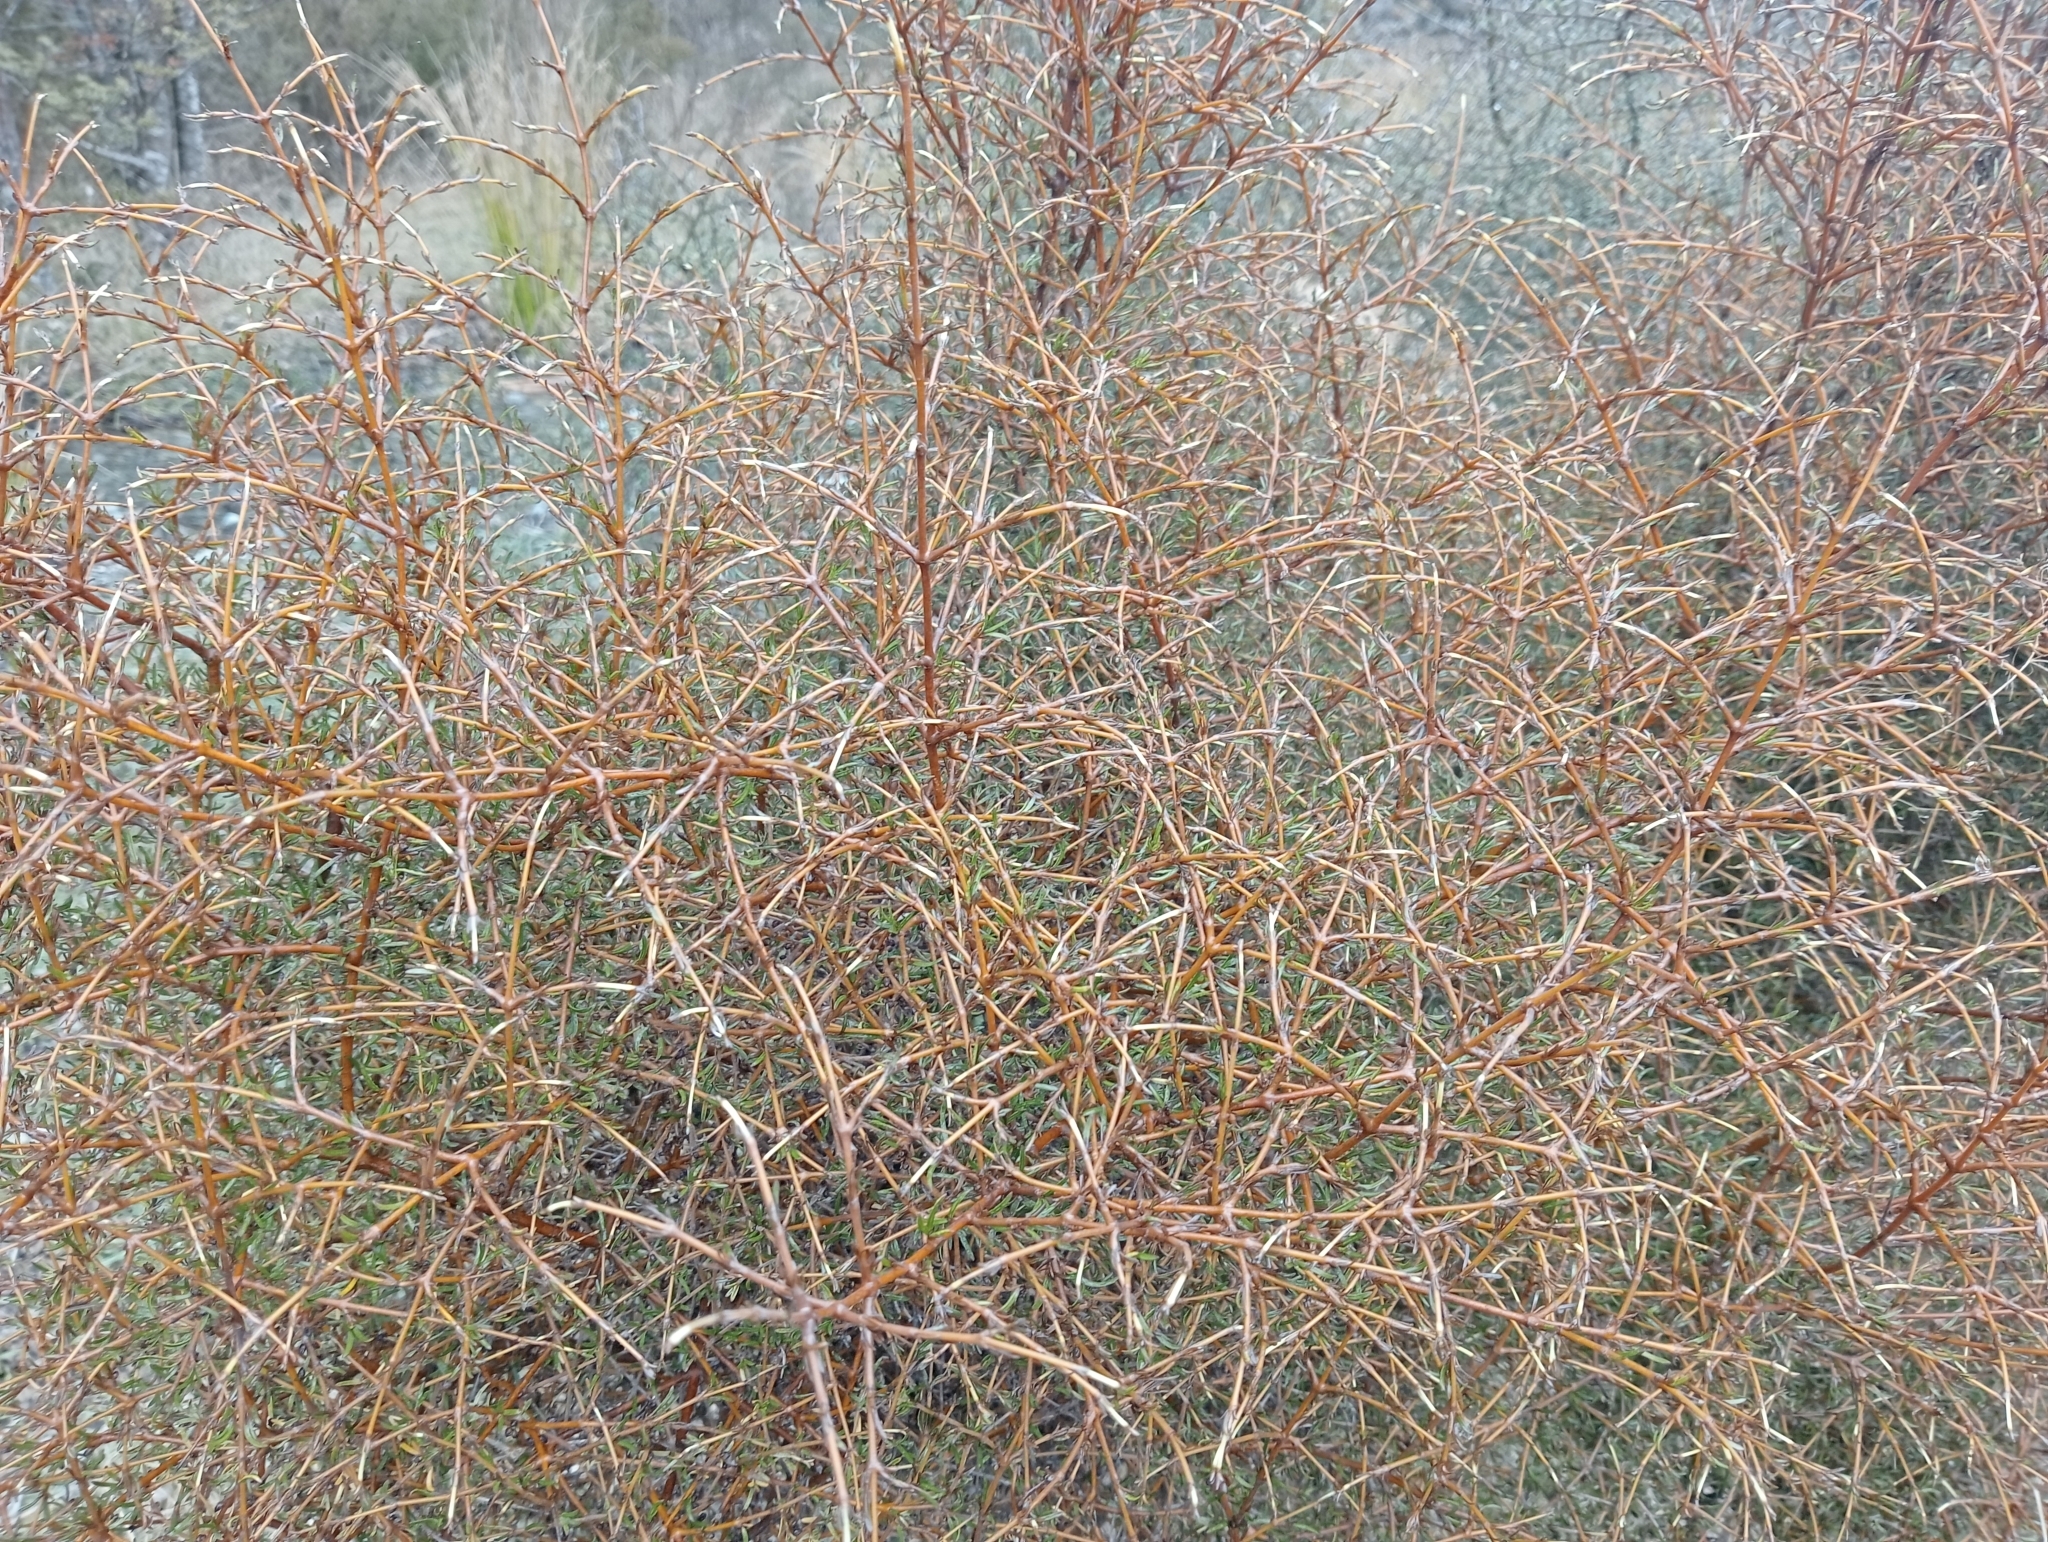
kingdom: Plantae
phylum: Tracheophyta
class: Magnoliopsida
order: Gentianales
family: Rubiaceae
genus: Coprosma
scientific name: Coprosma rugosa
